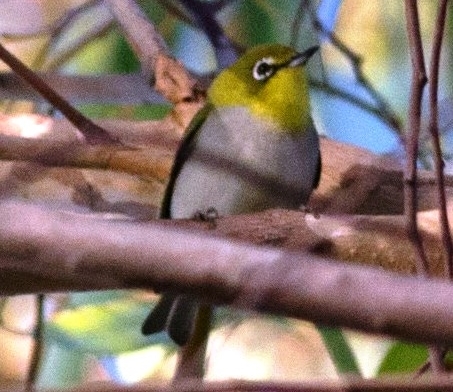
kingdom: Animalia
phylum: Chordata
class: Aves
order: Passeriformes
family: Zosteropidae
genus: Zosterops
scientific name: Zosterops simplex
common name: Swinhoe's white-eye
